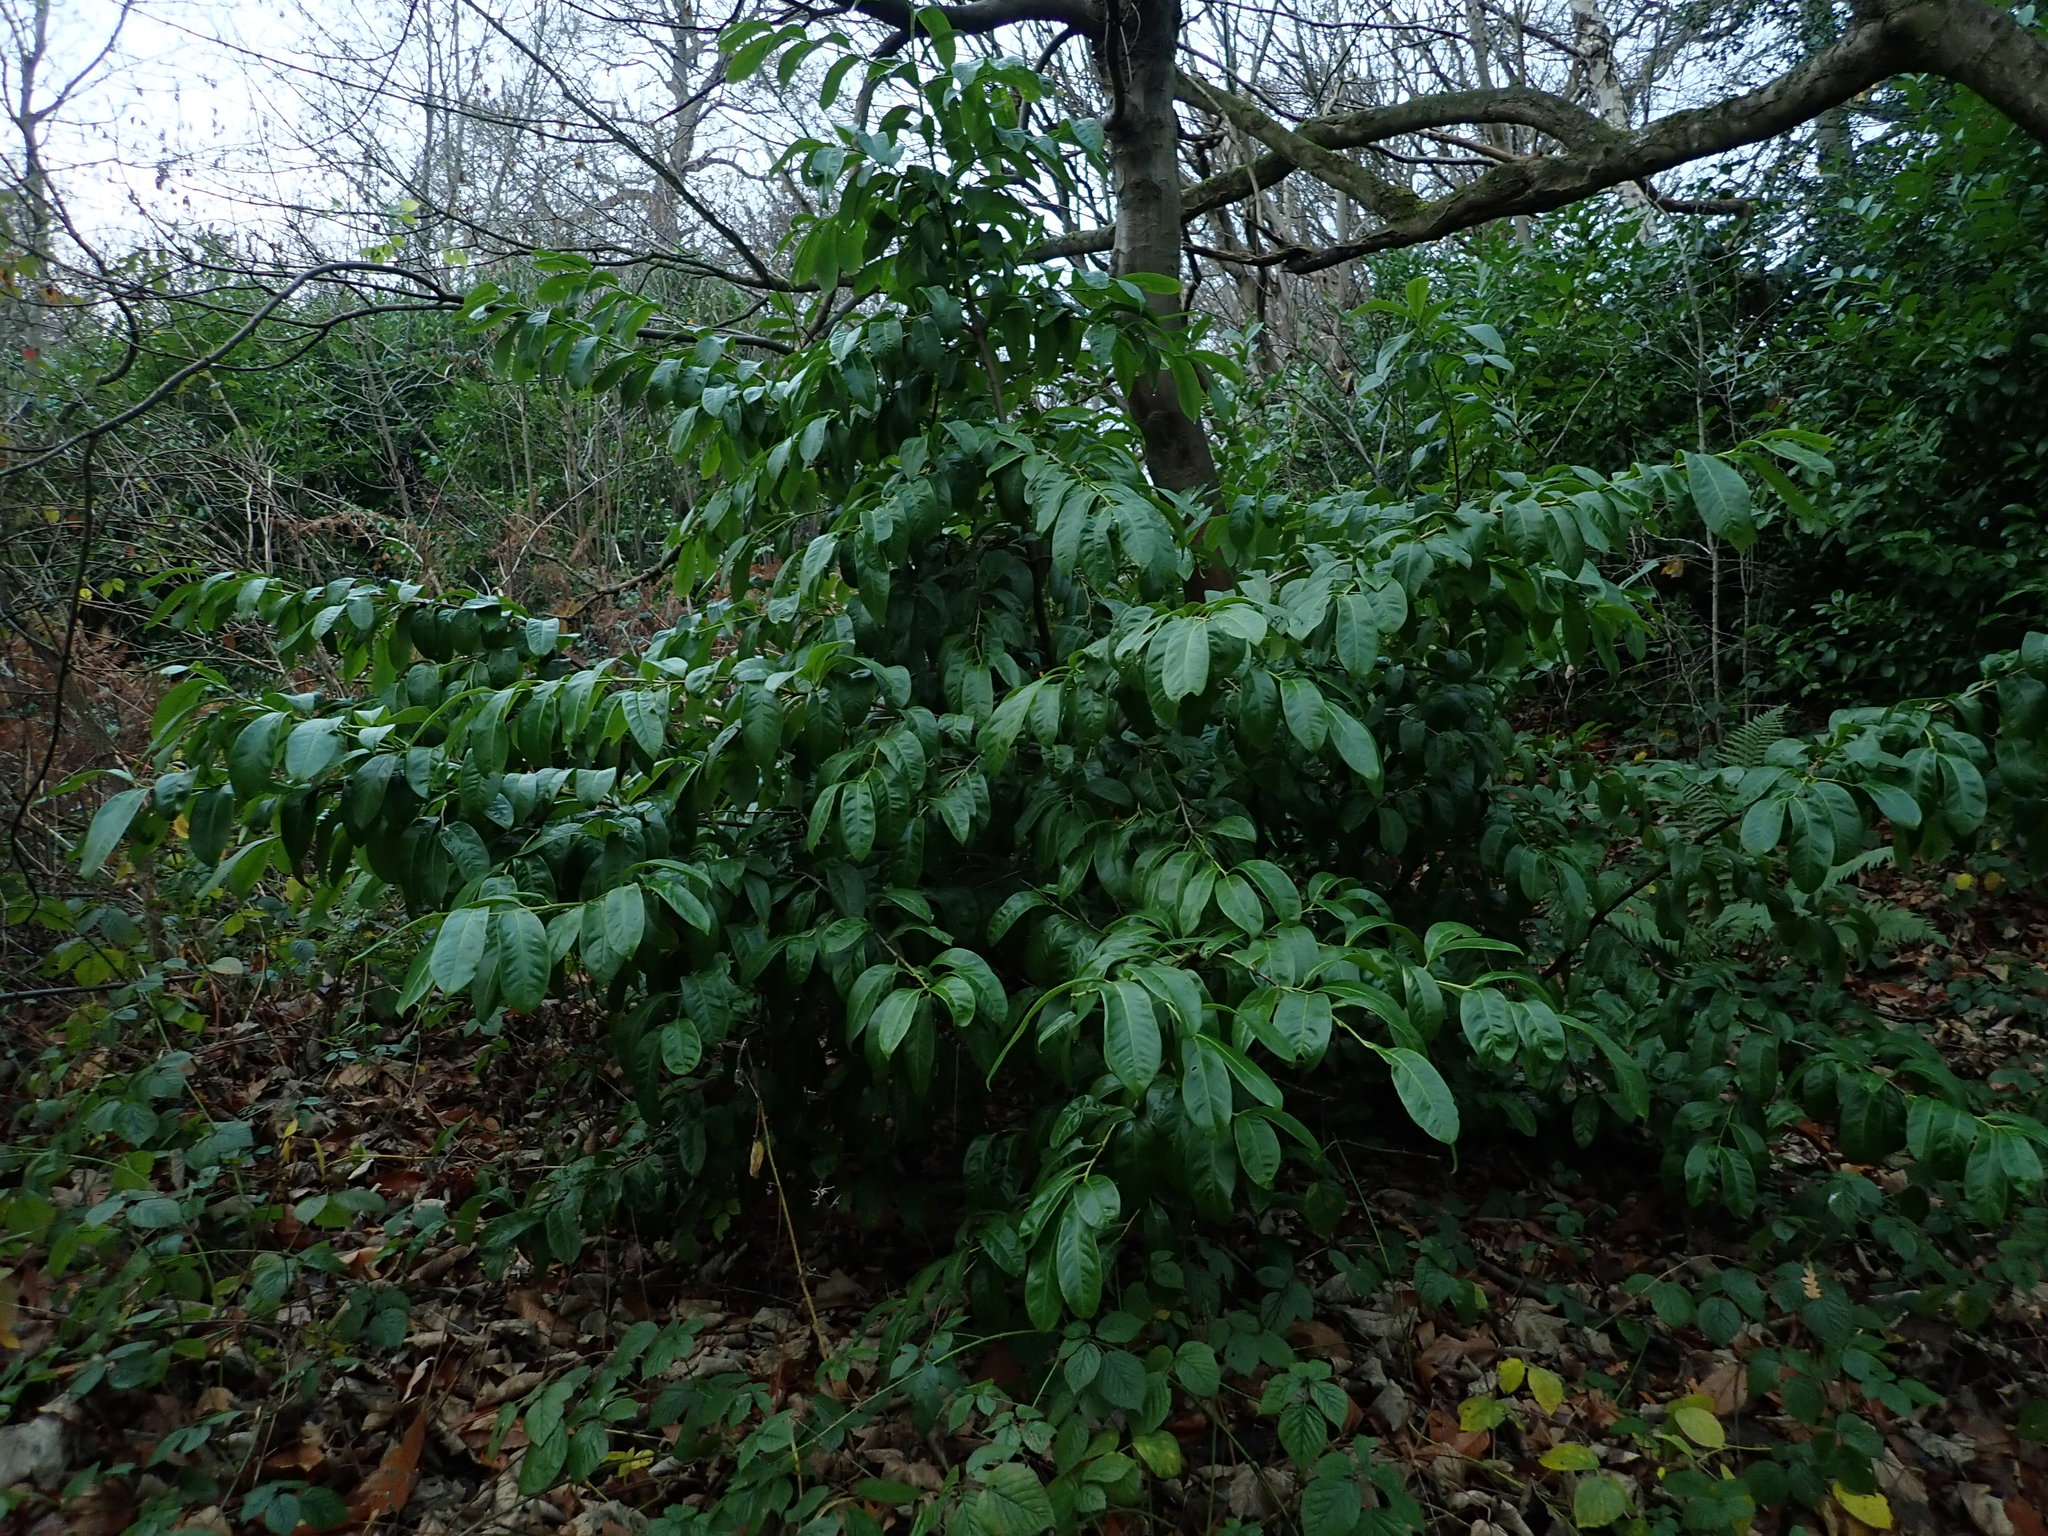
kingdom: Plantae
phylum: Tracheophyta
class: Magnoliopsida
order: Rosales
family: Rosaceae
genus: Prunus
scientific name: Prunus laurocerasus
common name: Cherry laurel
